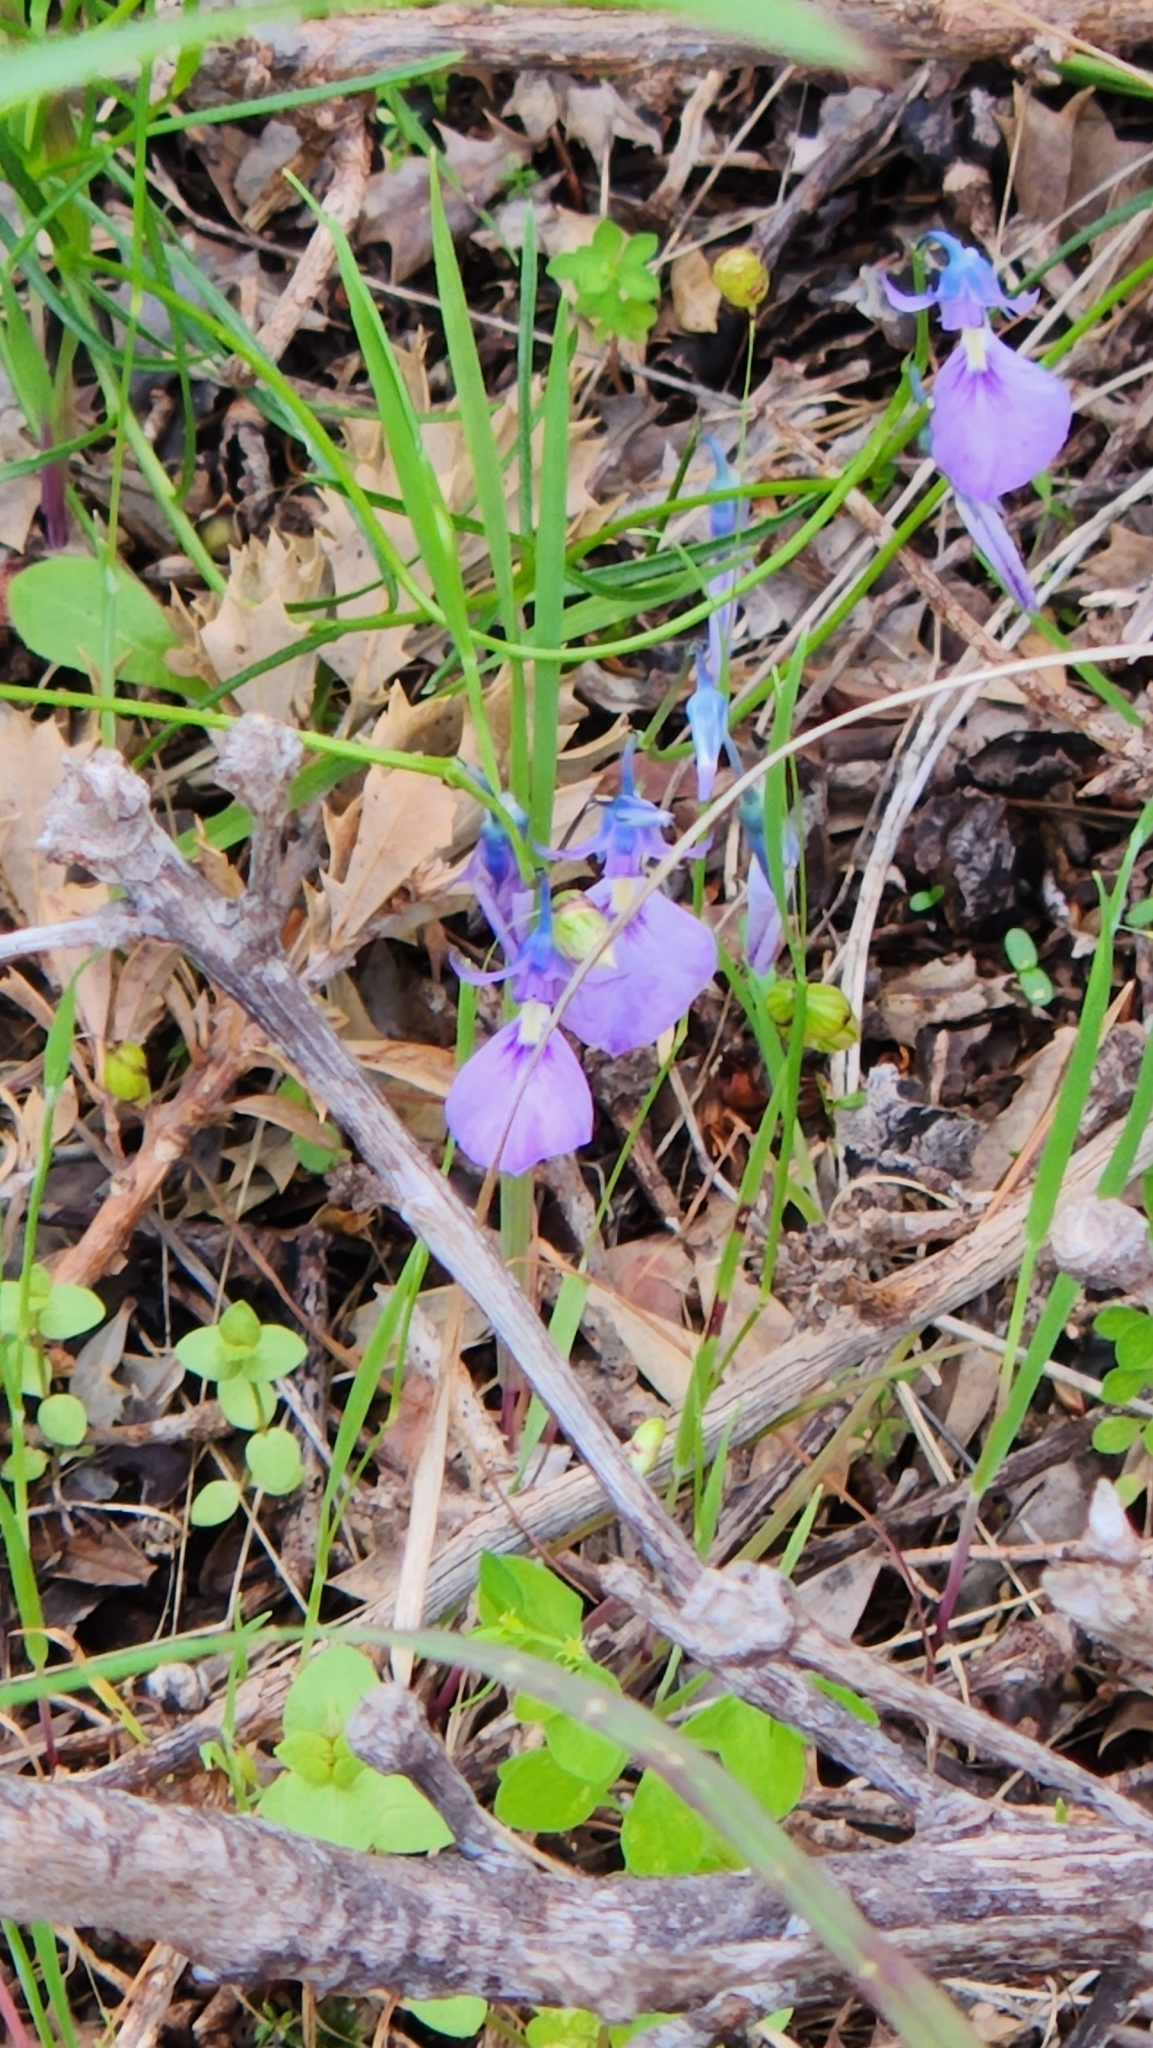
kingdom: Plantae
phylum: Tracheophyta
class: Magnoliopsida
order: Malpighiales
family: Violaceae
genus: Pigea
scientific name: Pigea calycina
